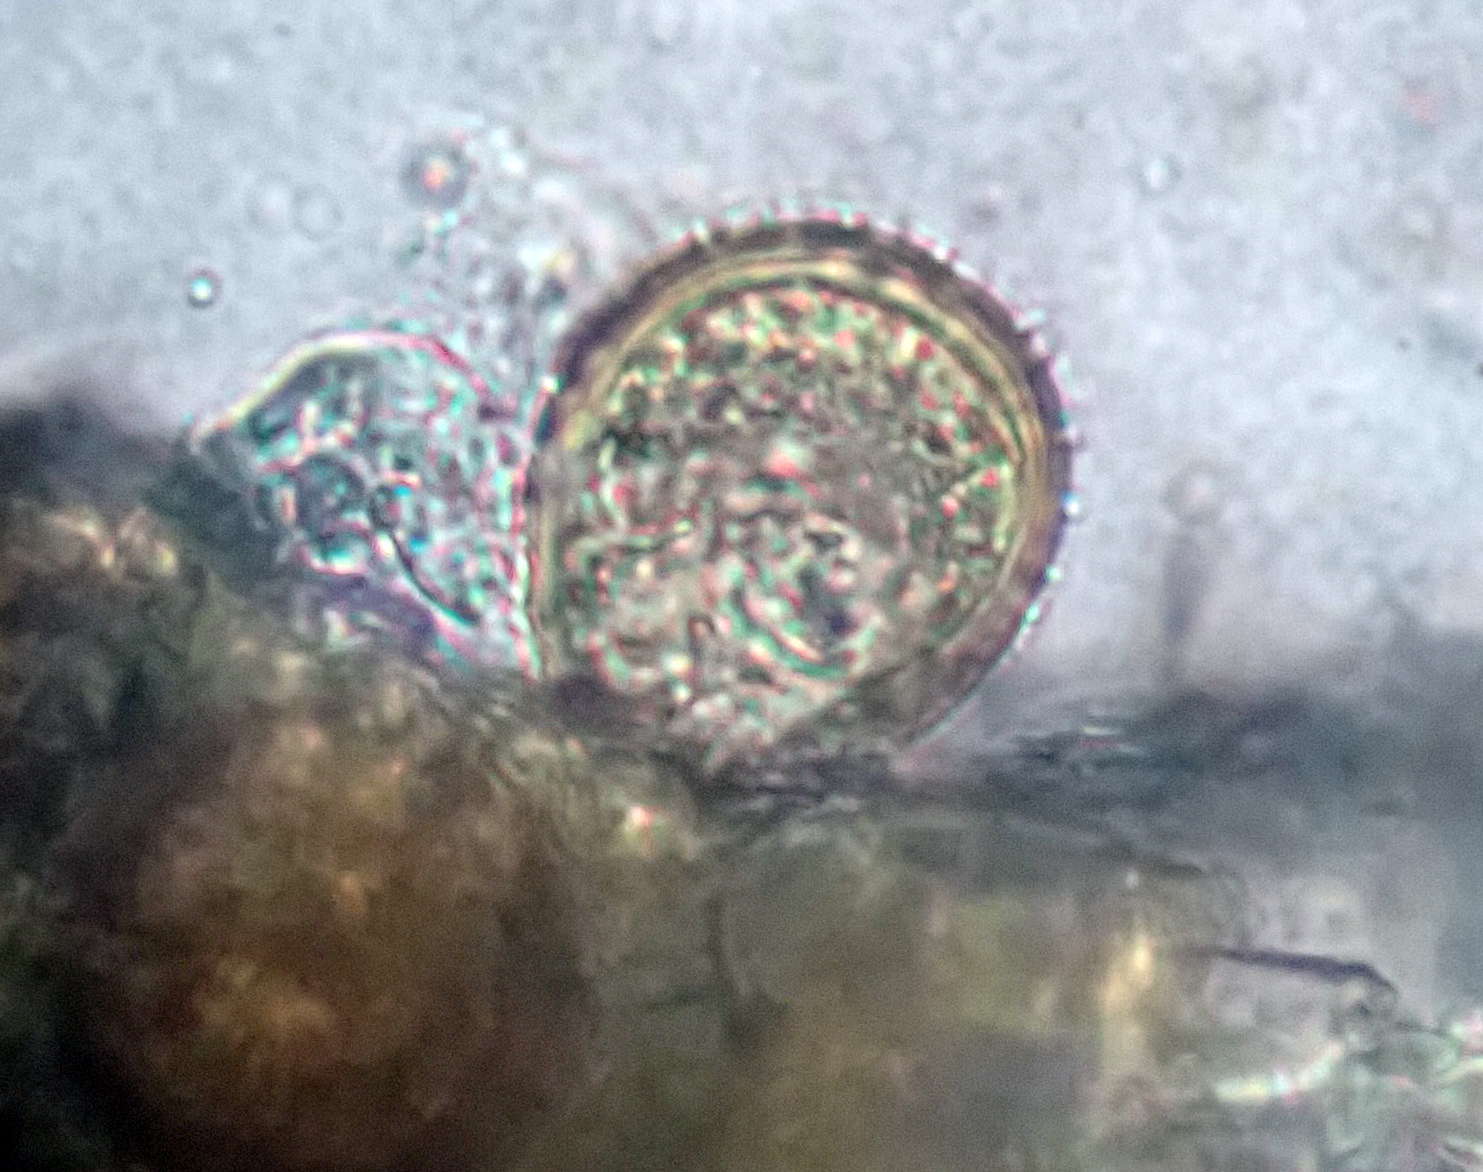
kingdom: Fungi
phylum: Basidiomycota
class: Pucciniomycetes
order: Pucciniales
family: Pucciniaceae
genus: Puccinia
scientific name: Puccinia chathamica
